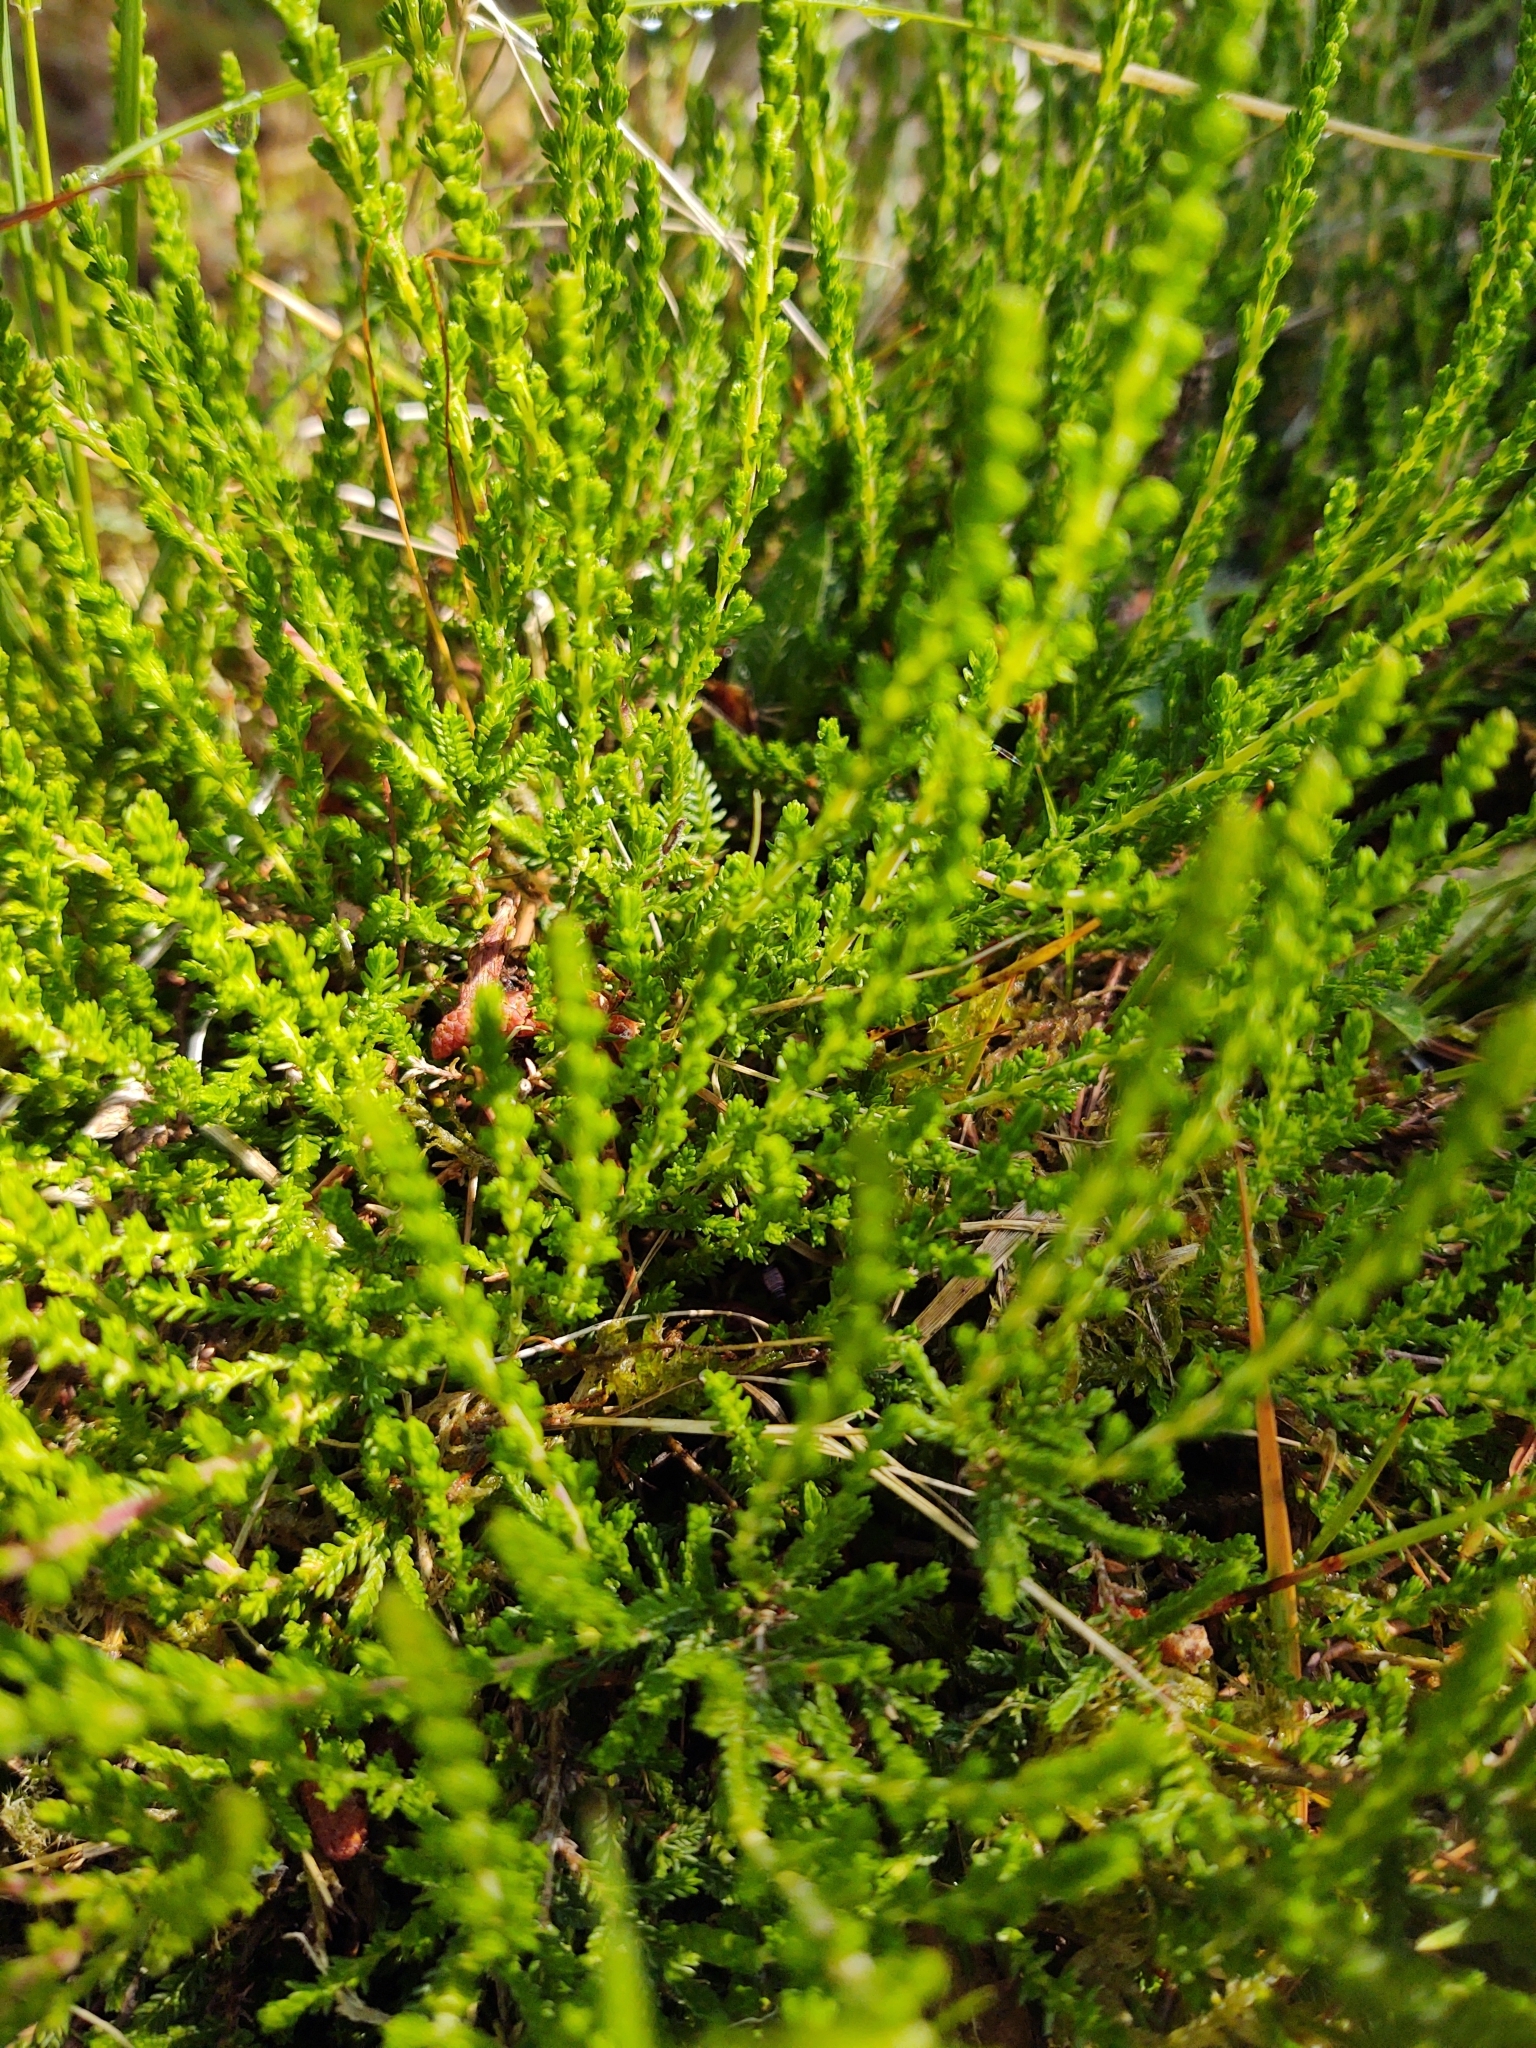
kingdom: Plantae
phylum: Tracheophyta
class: Magnoliopsida
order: Ericales
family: Ericaceae
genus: Calluna
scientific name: Calluna vulgaris
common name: Heather
